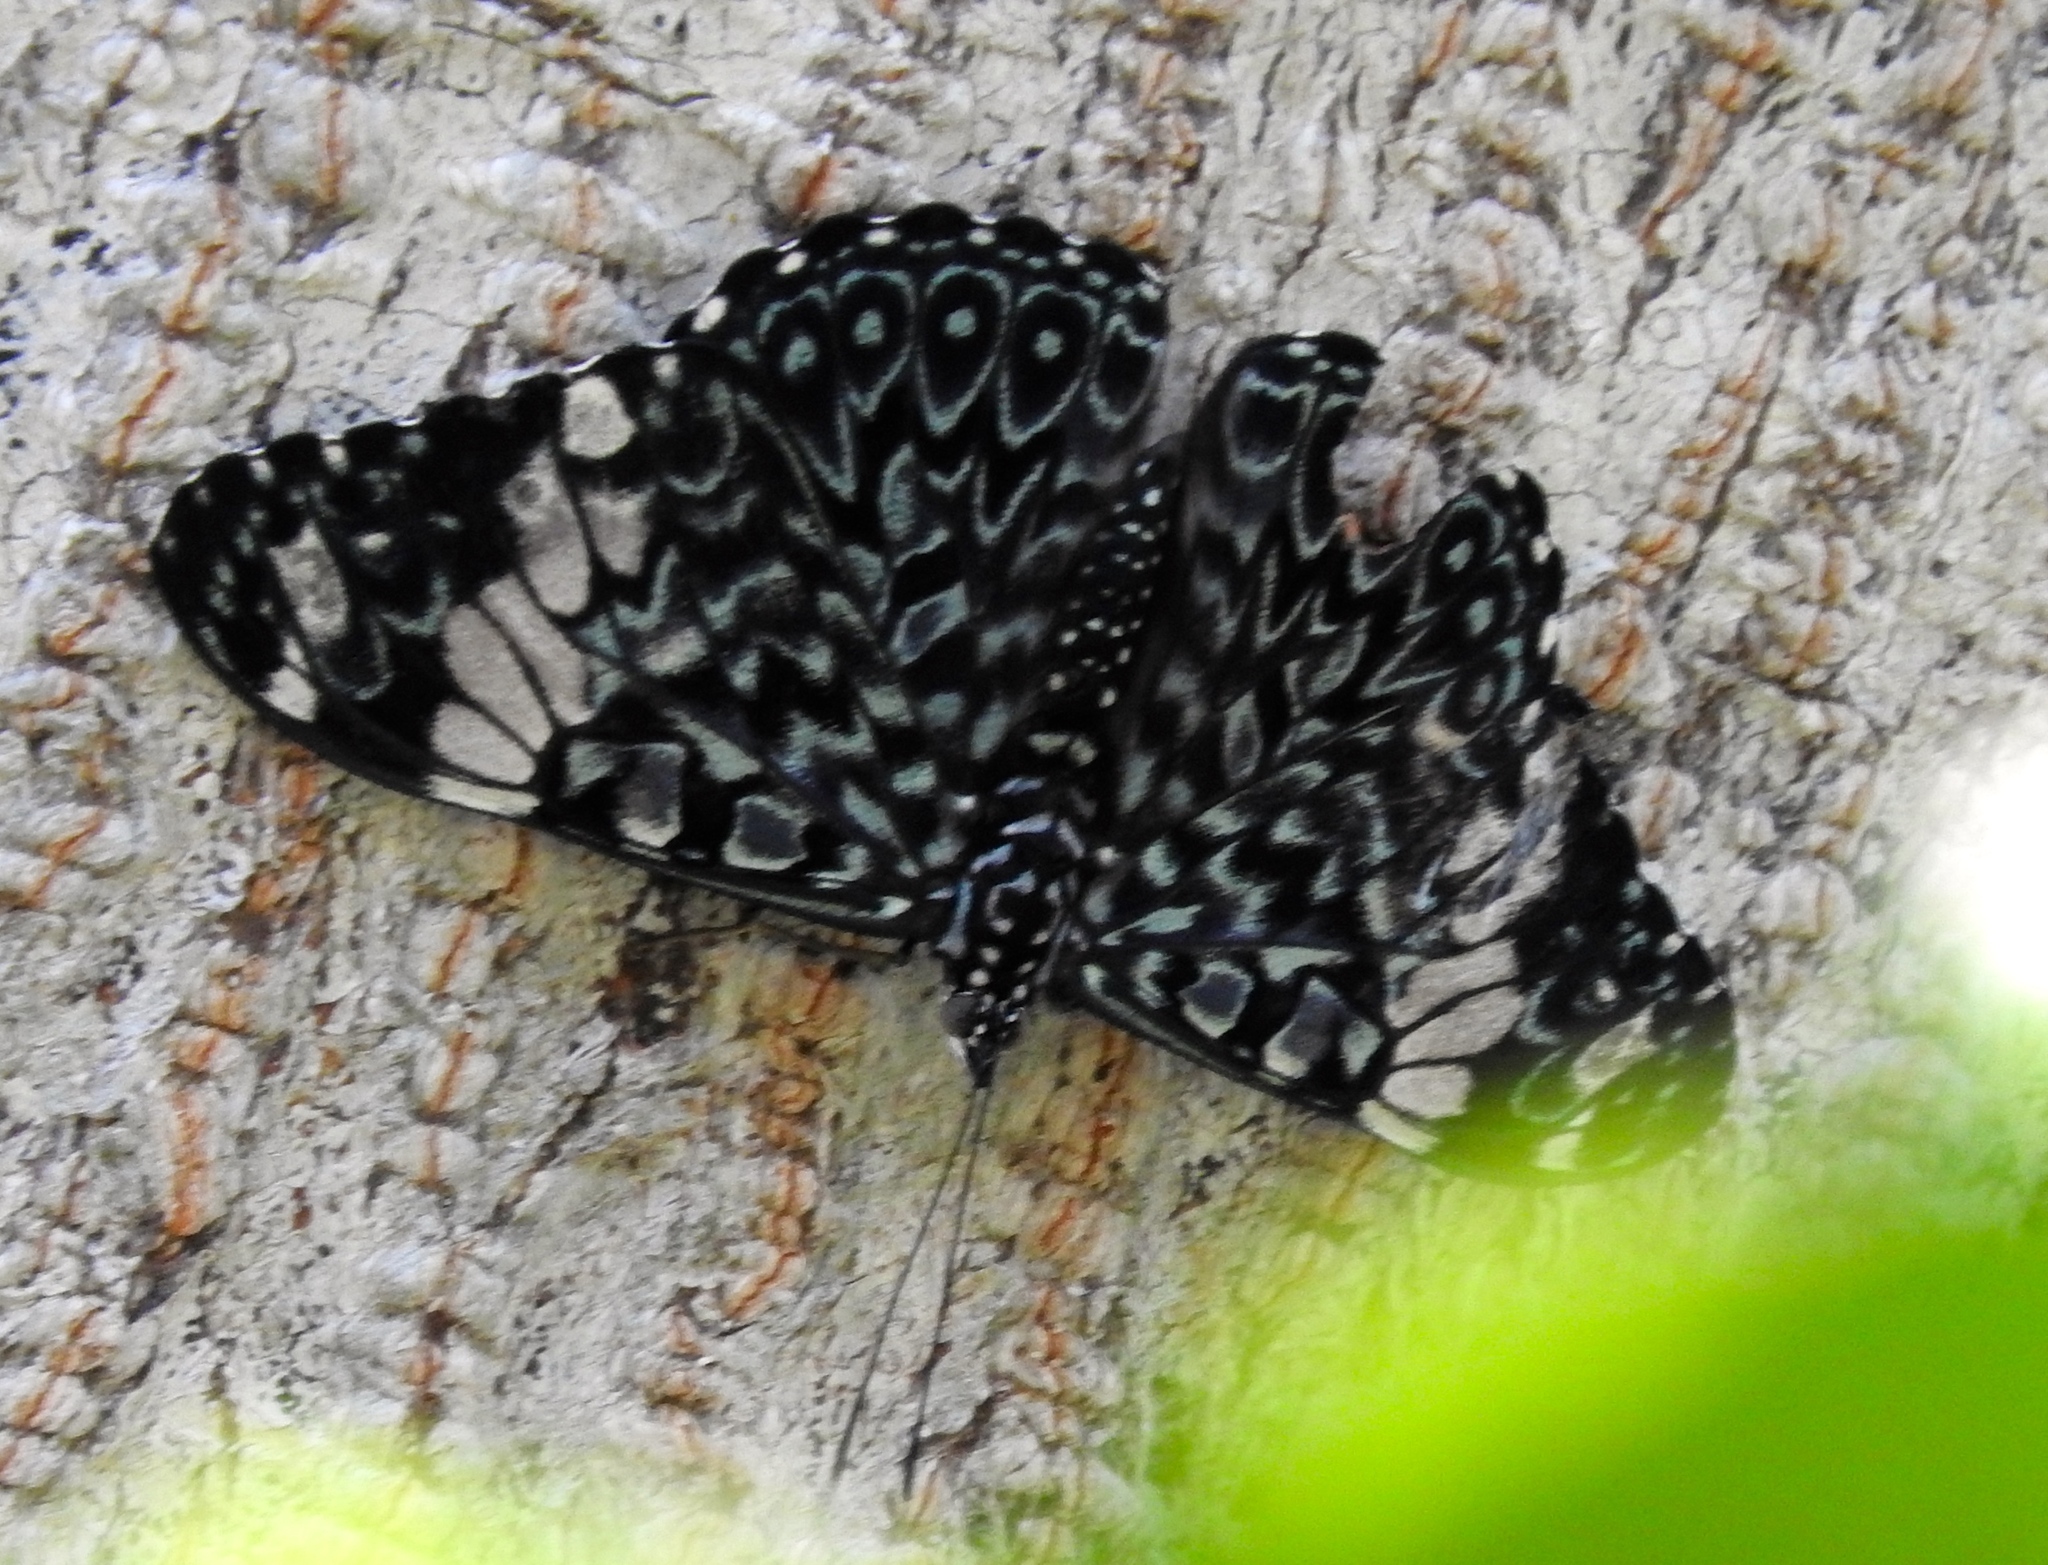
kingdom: Animalia
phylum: Arthropoda
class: Insecta
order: Lepidoptera
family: Nymphalidae
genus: Hamadryas
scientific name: Hamadryas amphinome
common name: Red cracker
